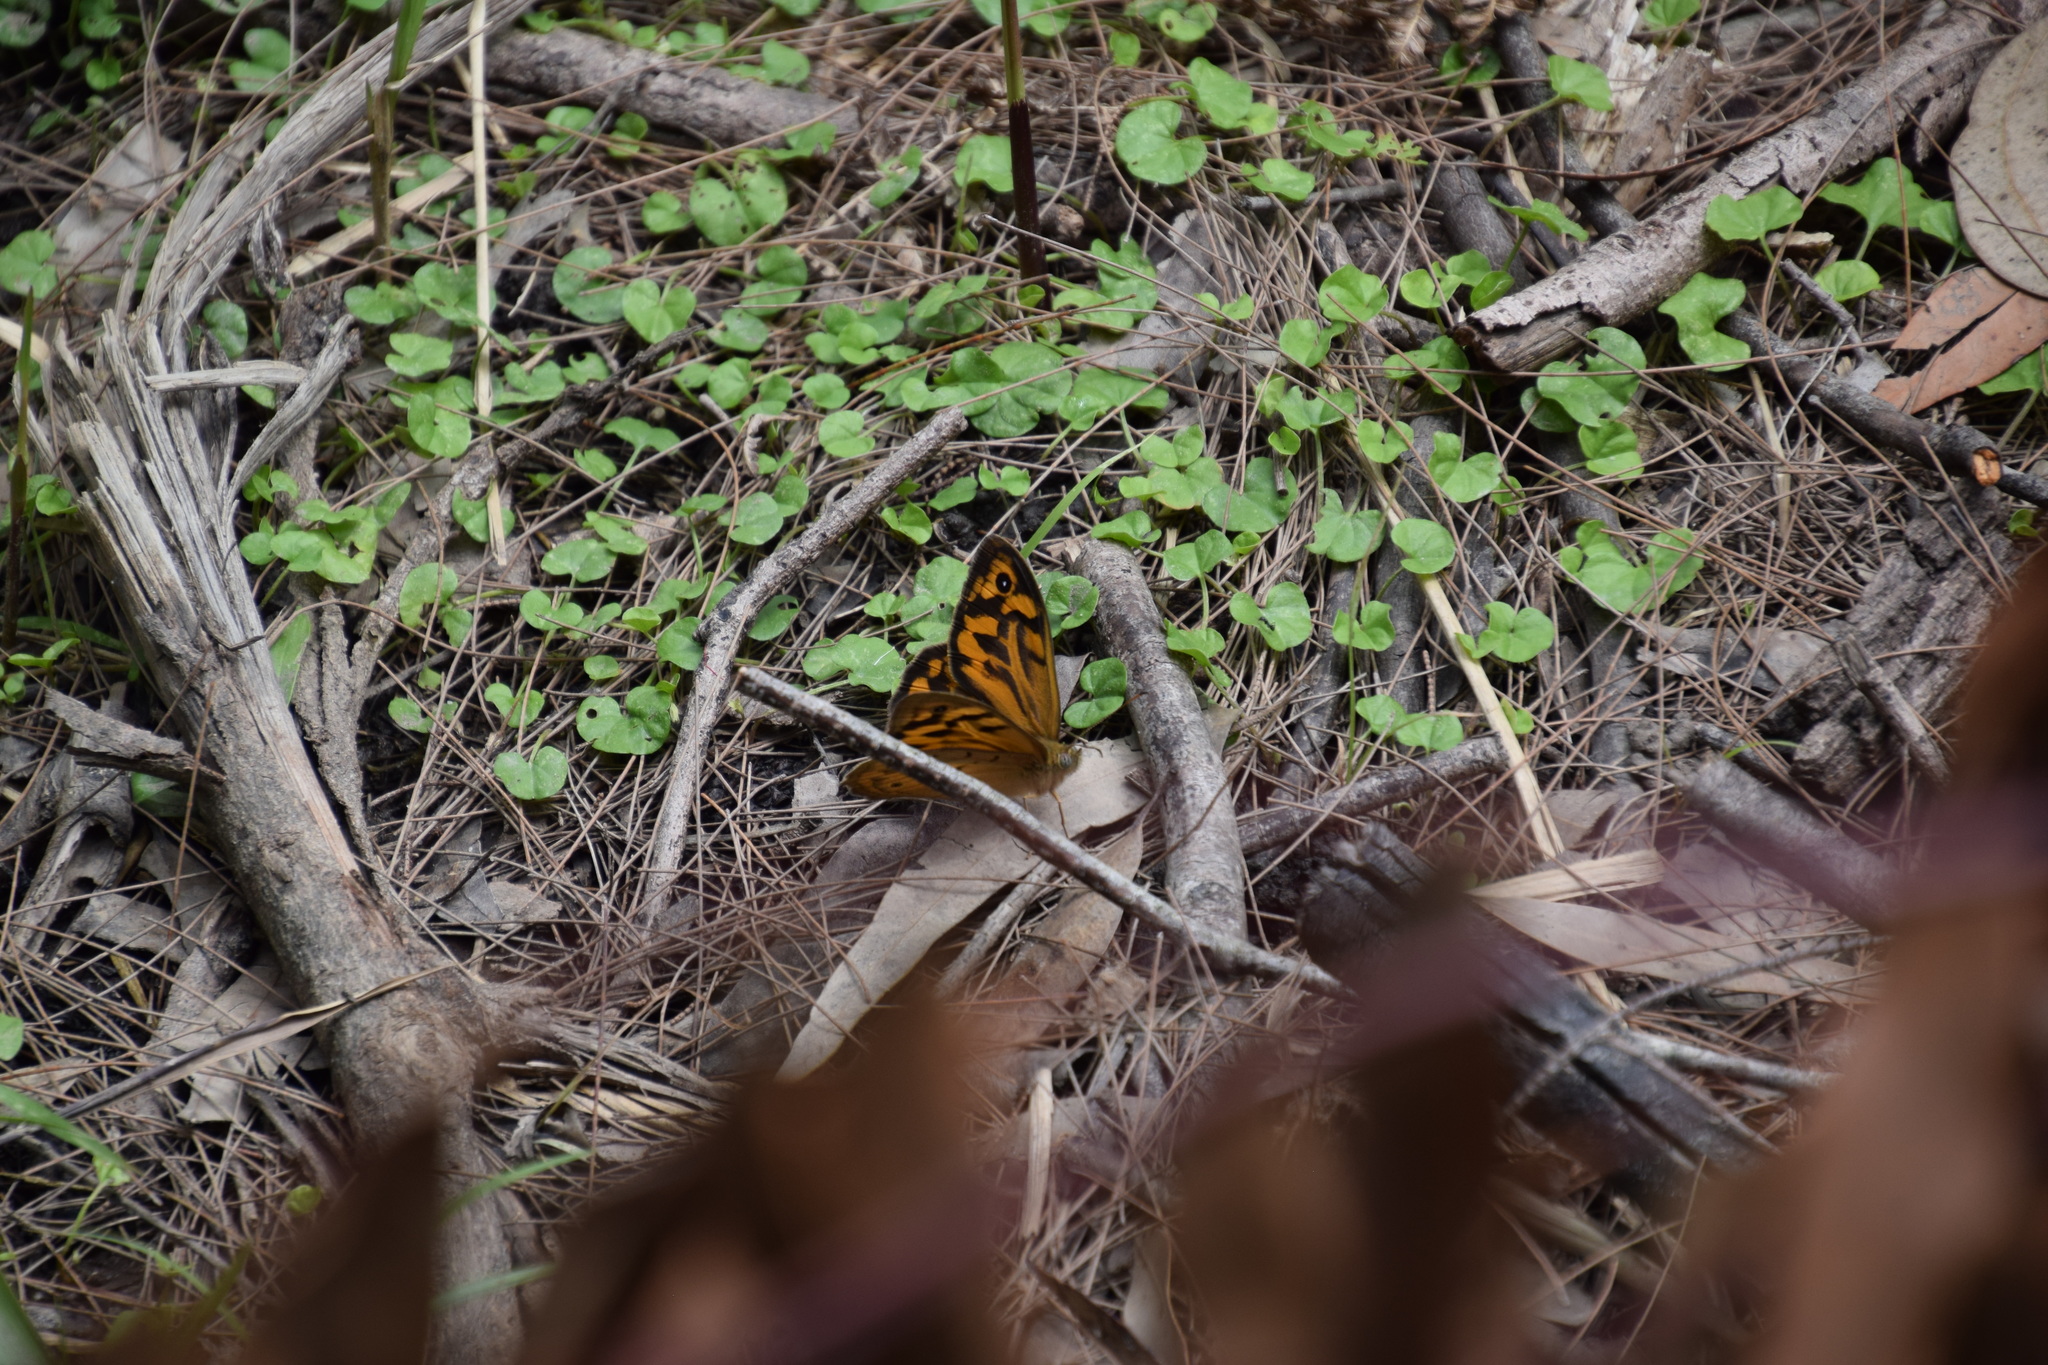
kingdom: Animalia
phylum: Arthropoda
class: Insecta
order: Lepidoptera
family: Nymphalidae
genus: Heteronympha
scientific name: Heteronympha merope
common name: Common brown
